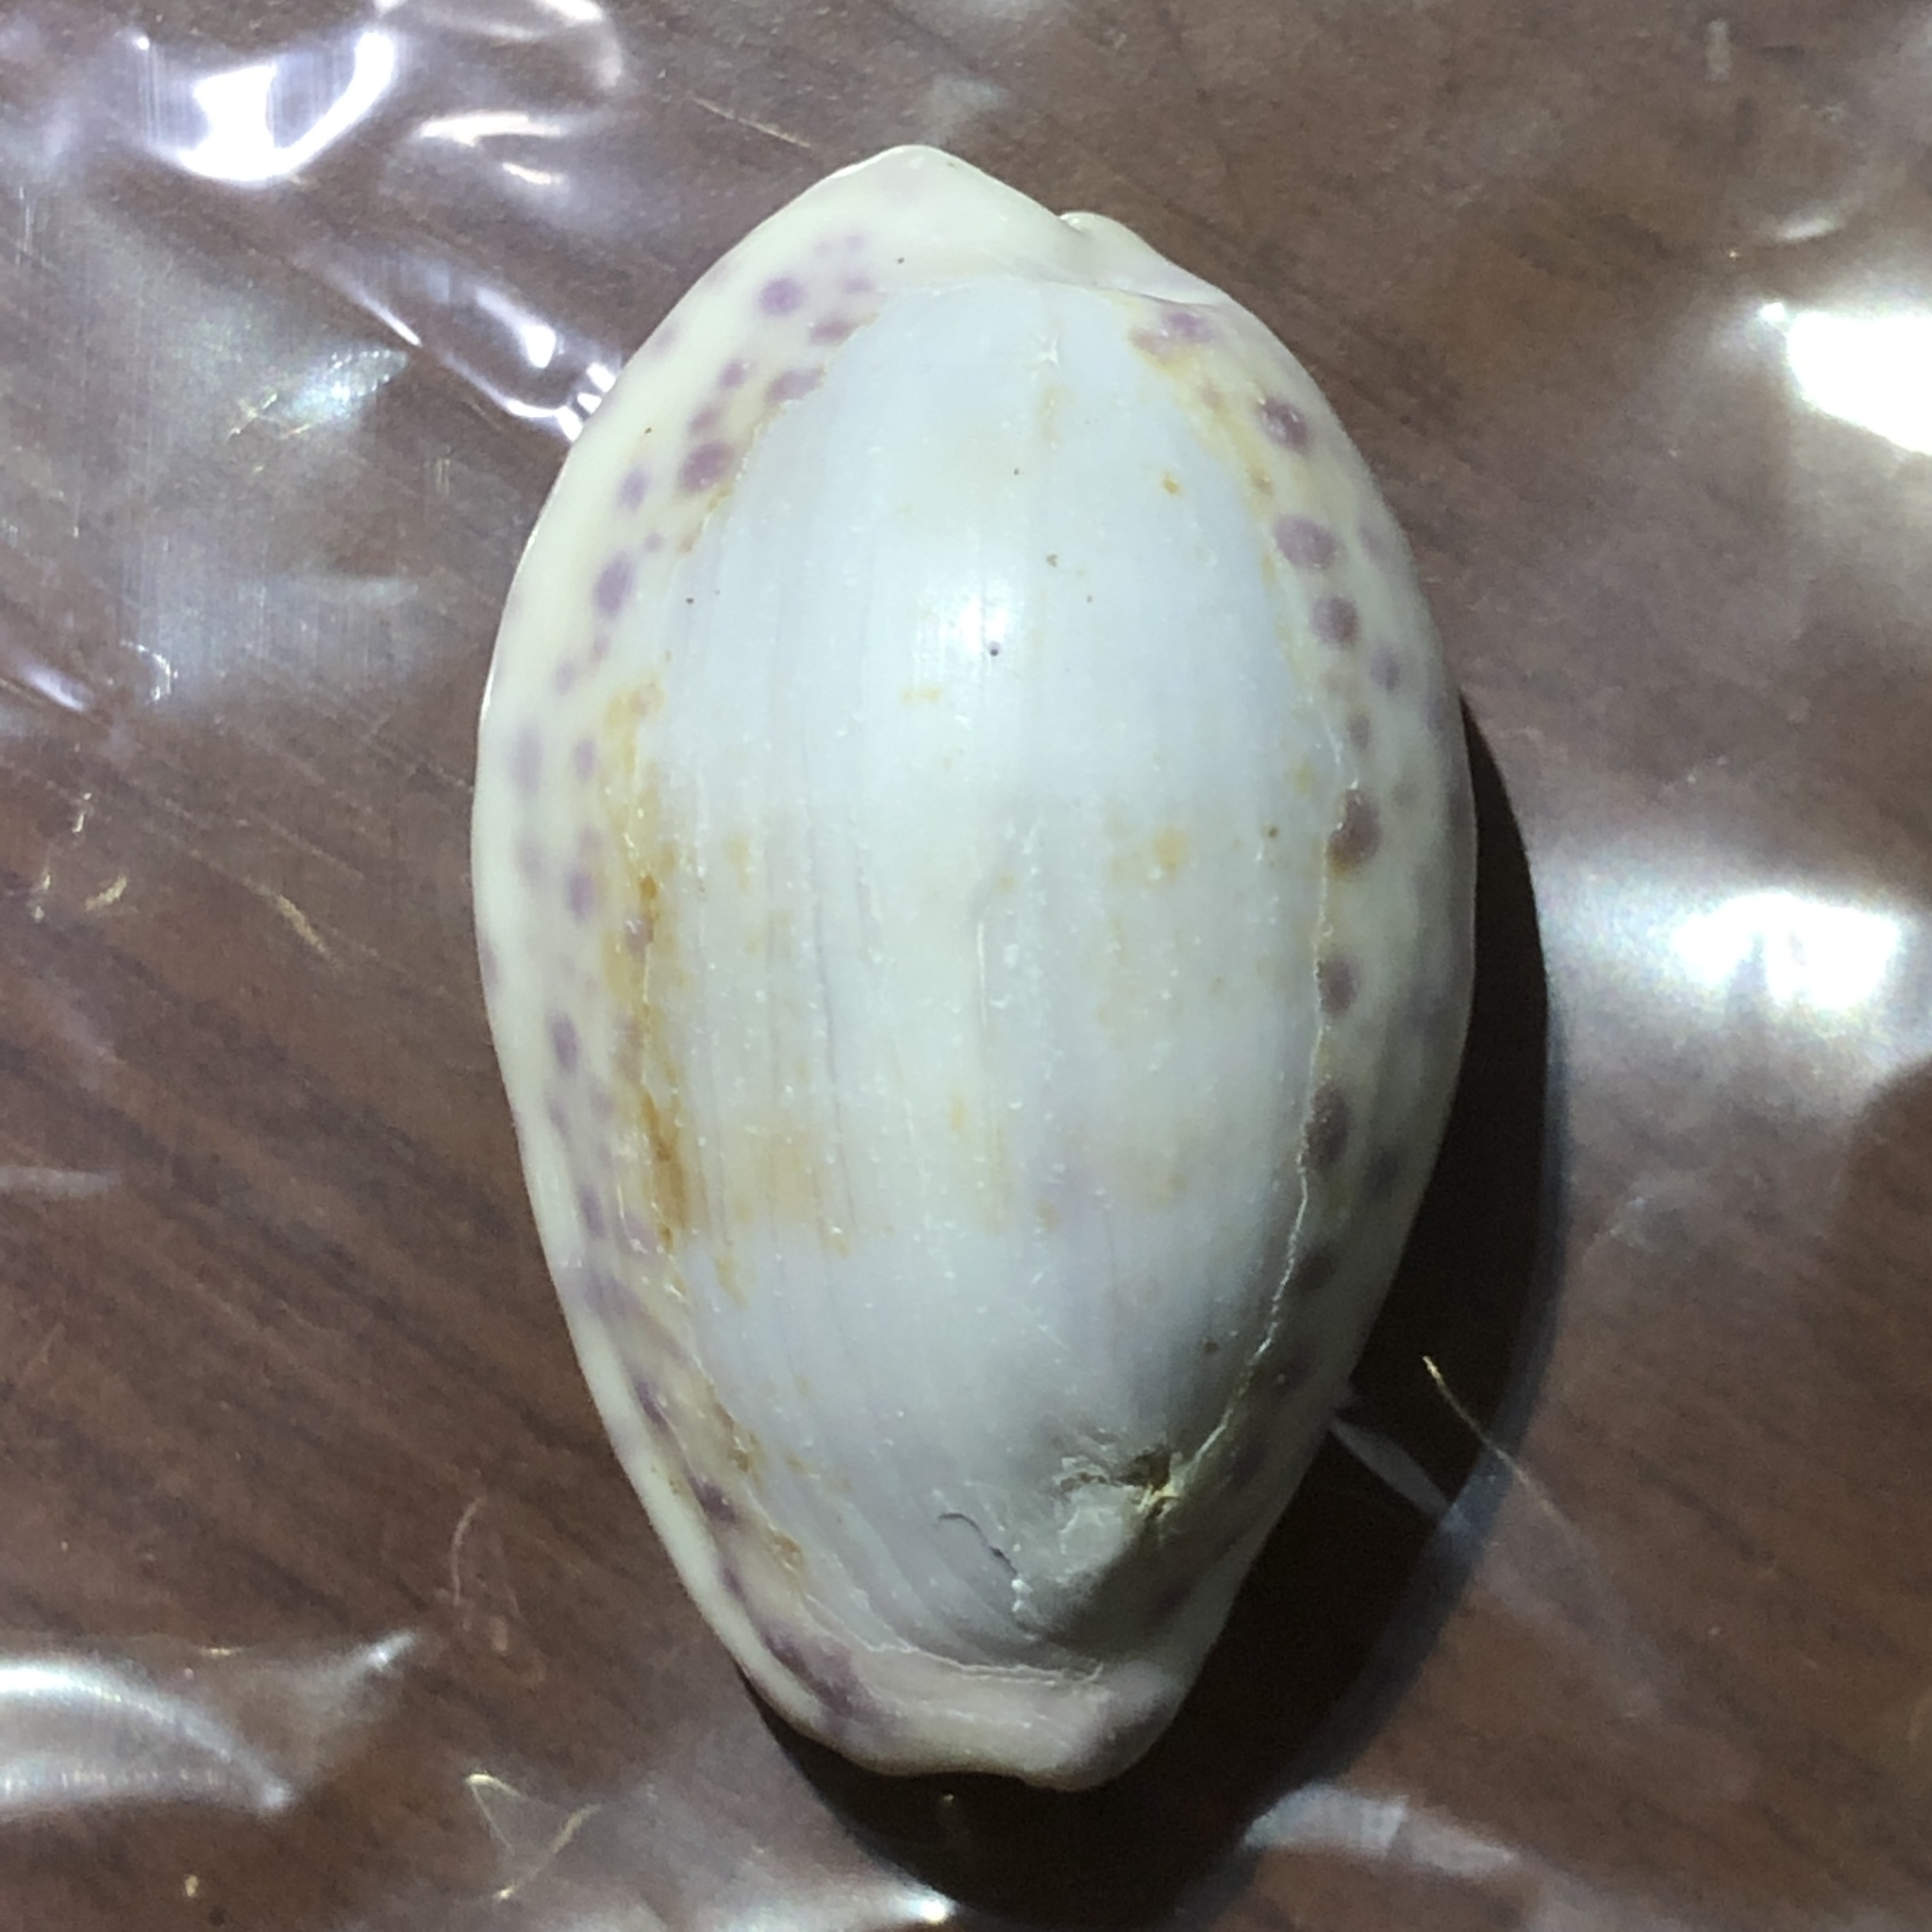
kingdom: Animalia
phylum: Mollusca
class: Gastropoda
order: Littorinimorpha
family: Cypraeidae
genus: Ovatipsa
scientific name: Ovatipsa chinensis
